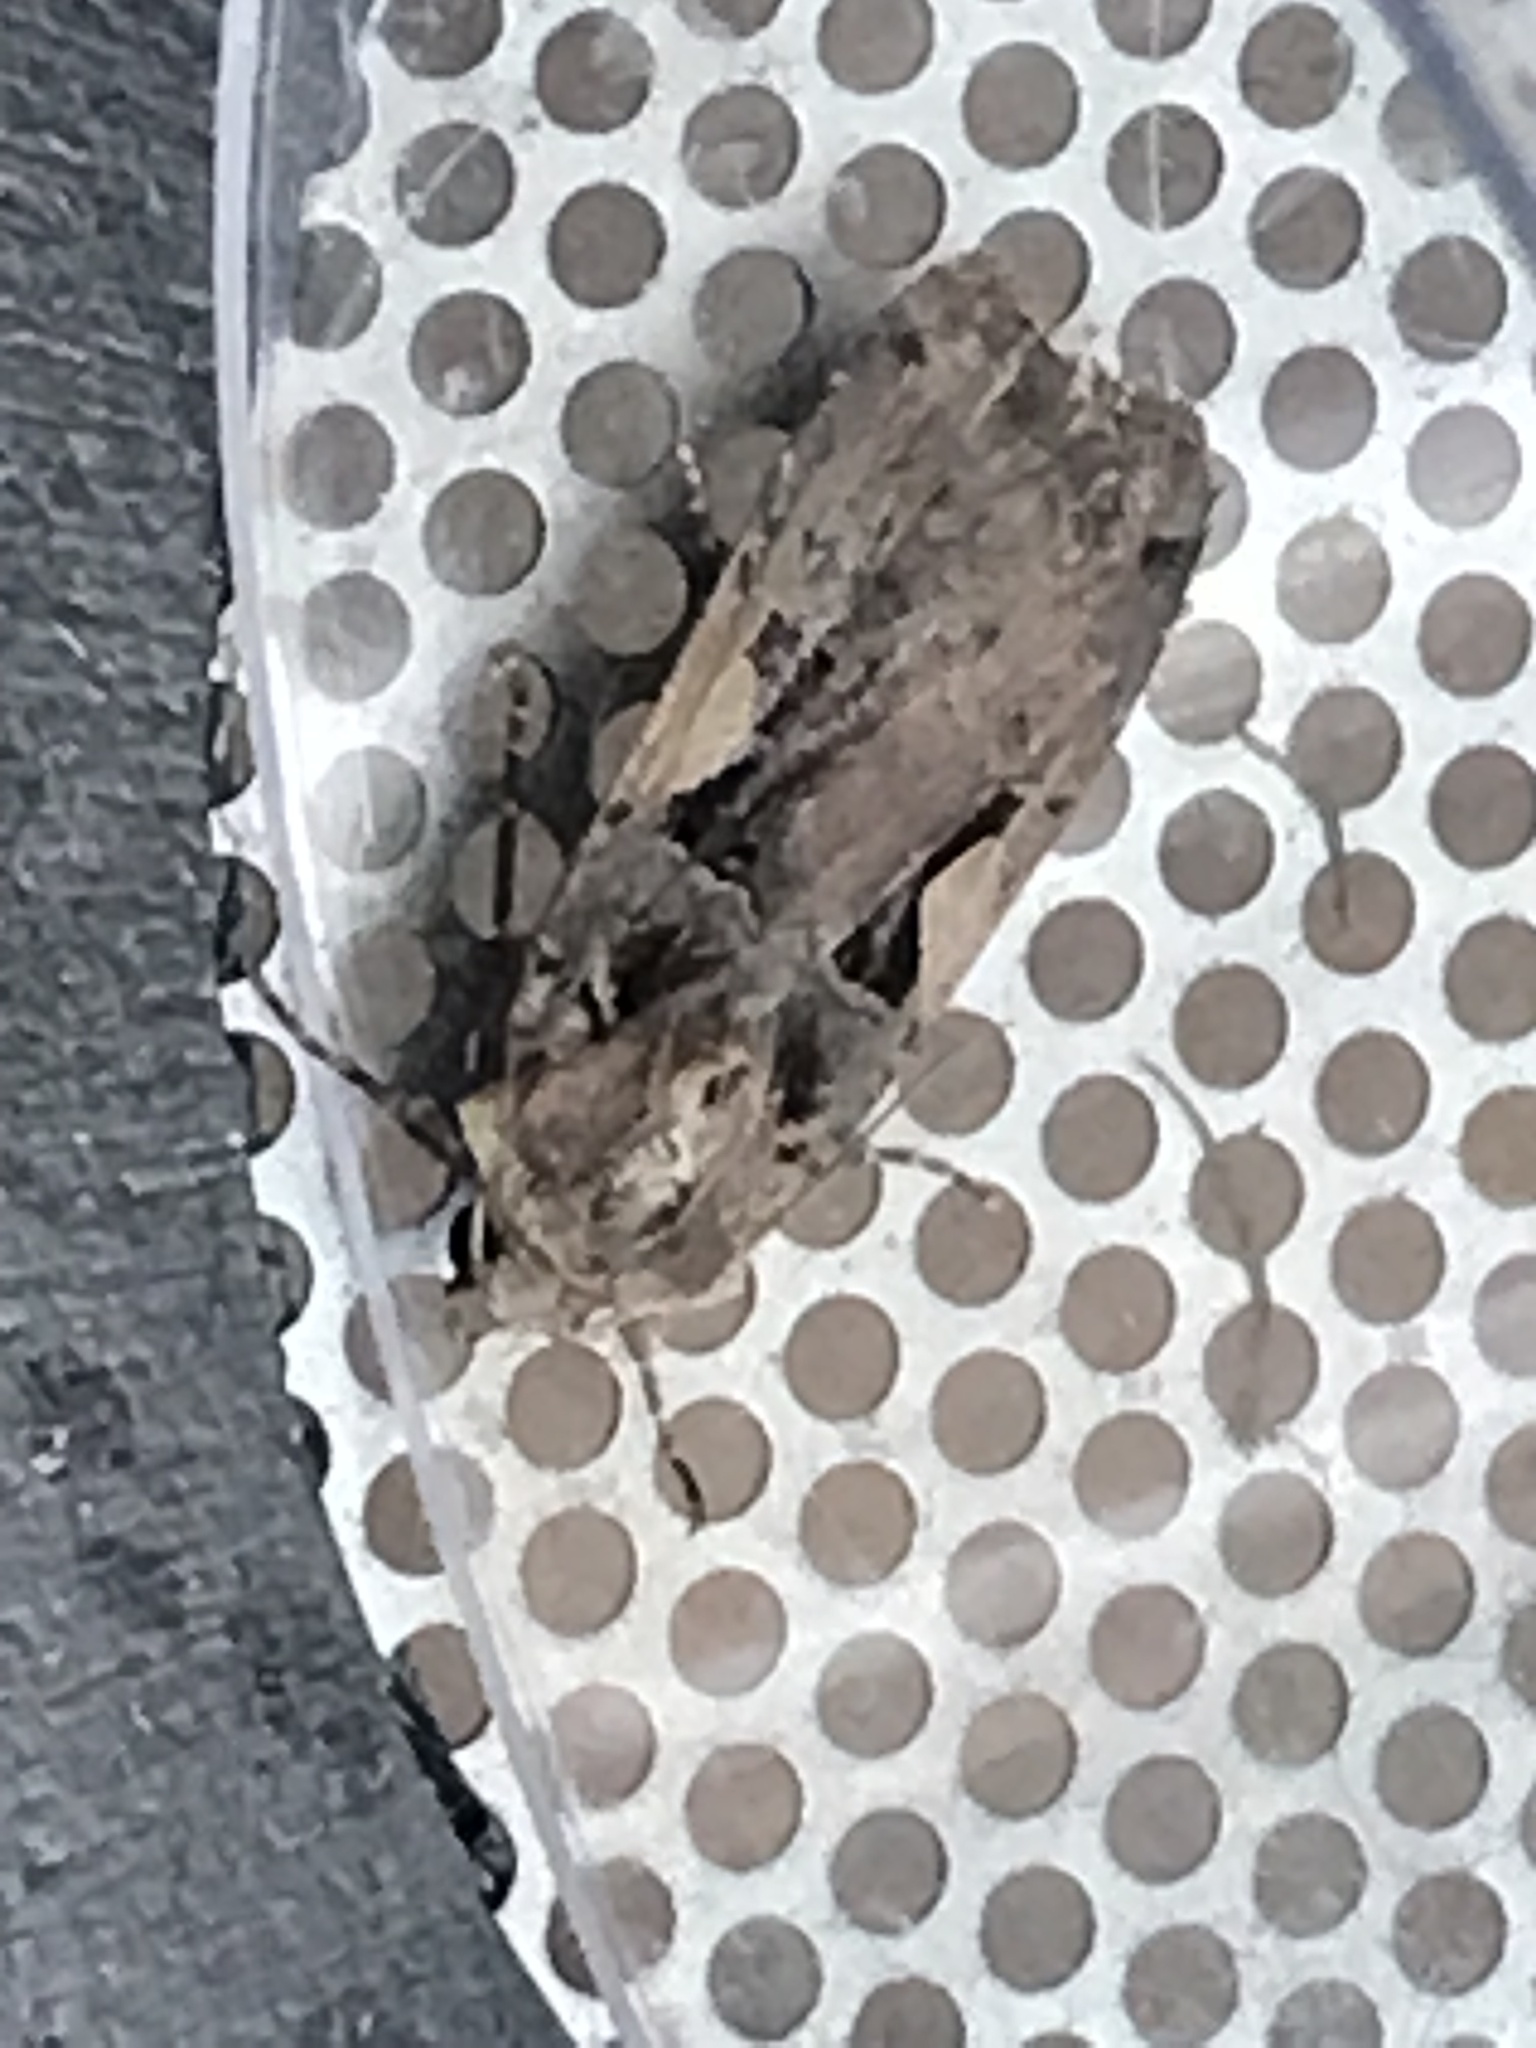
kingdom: Animalia
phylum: Arthropoda
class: Insecta
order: Lepidoptera
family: Noctuidae
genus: Xestia
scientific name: Xestia c-nigrum
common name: Setaceous hebrew character
